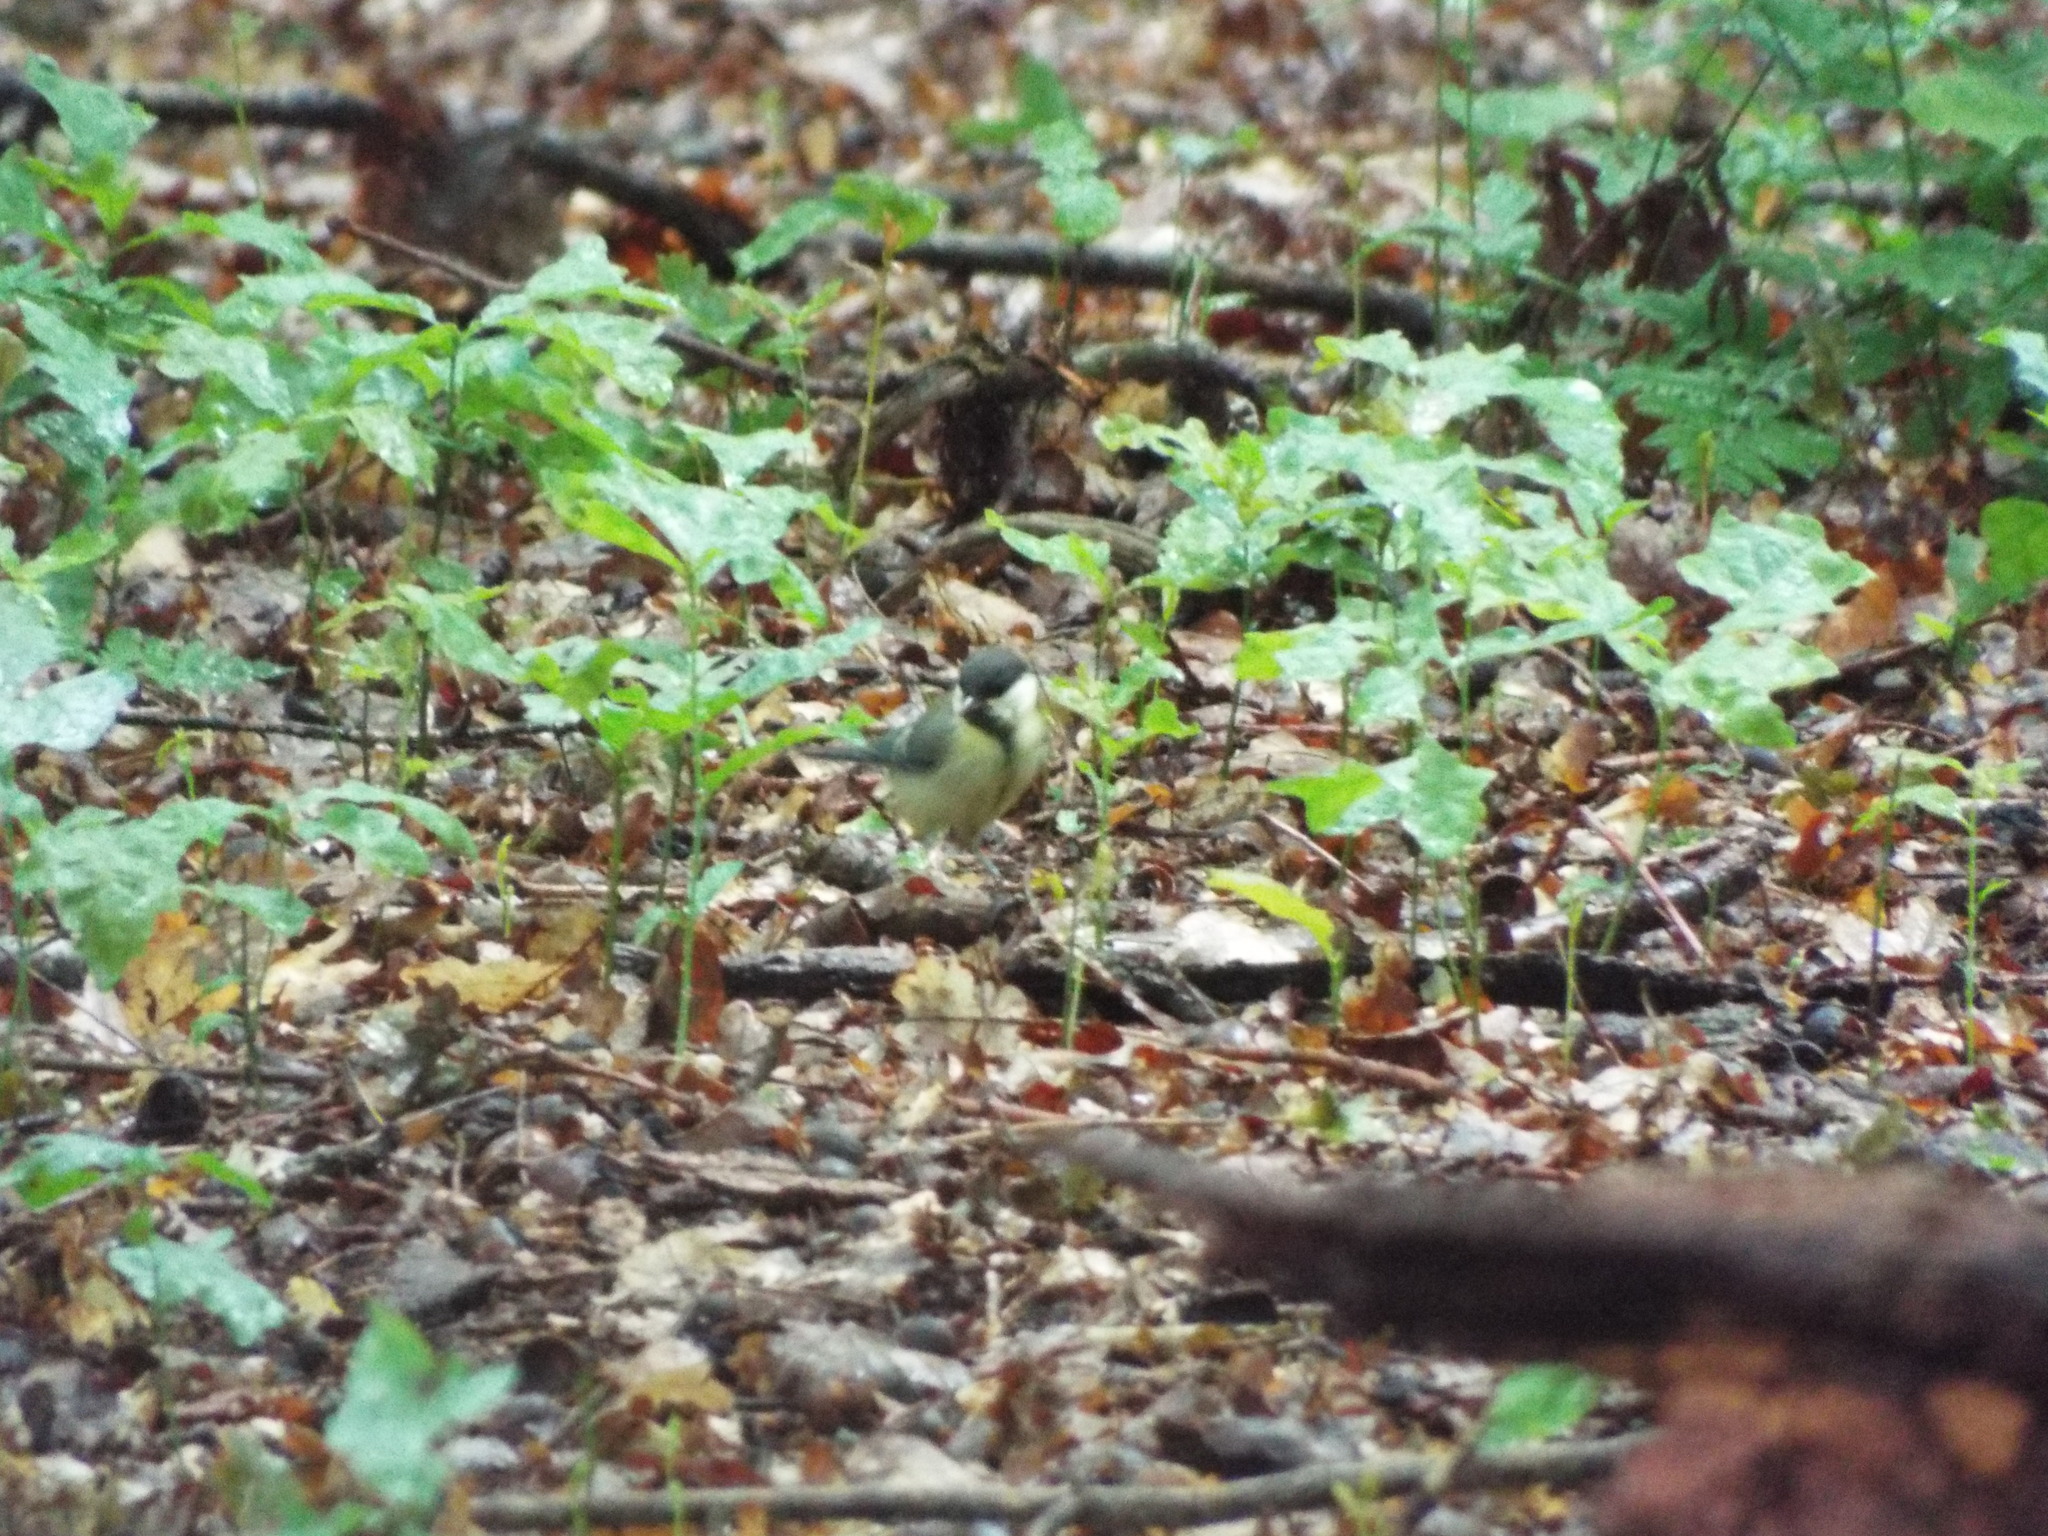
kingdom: Animalia
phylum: Chordata
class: Aves
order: Passeriformes
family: Paridae
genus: Parus
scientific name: Parus major
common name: Great tit
